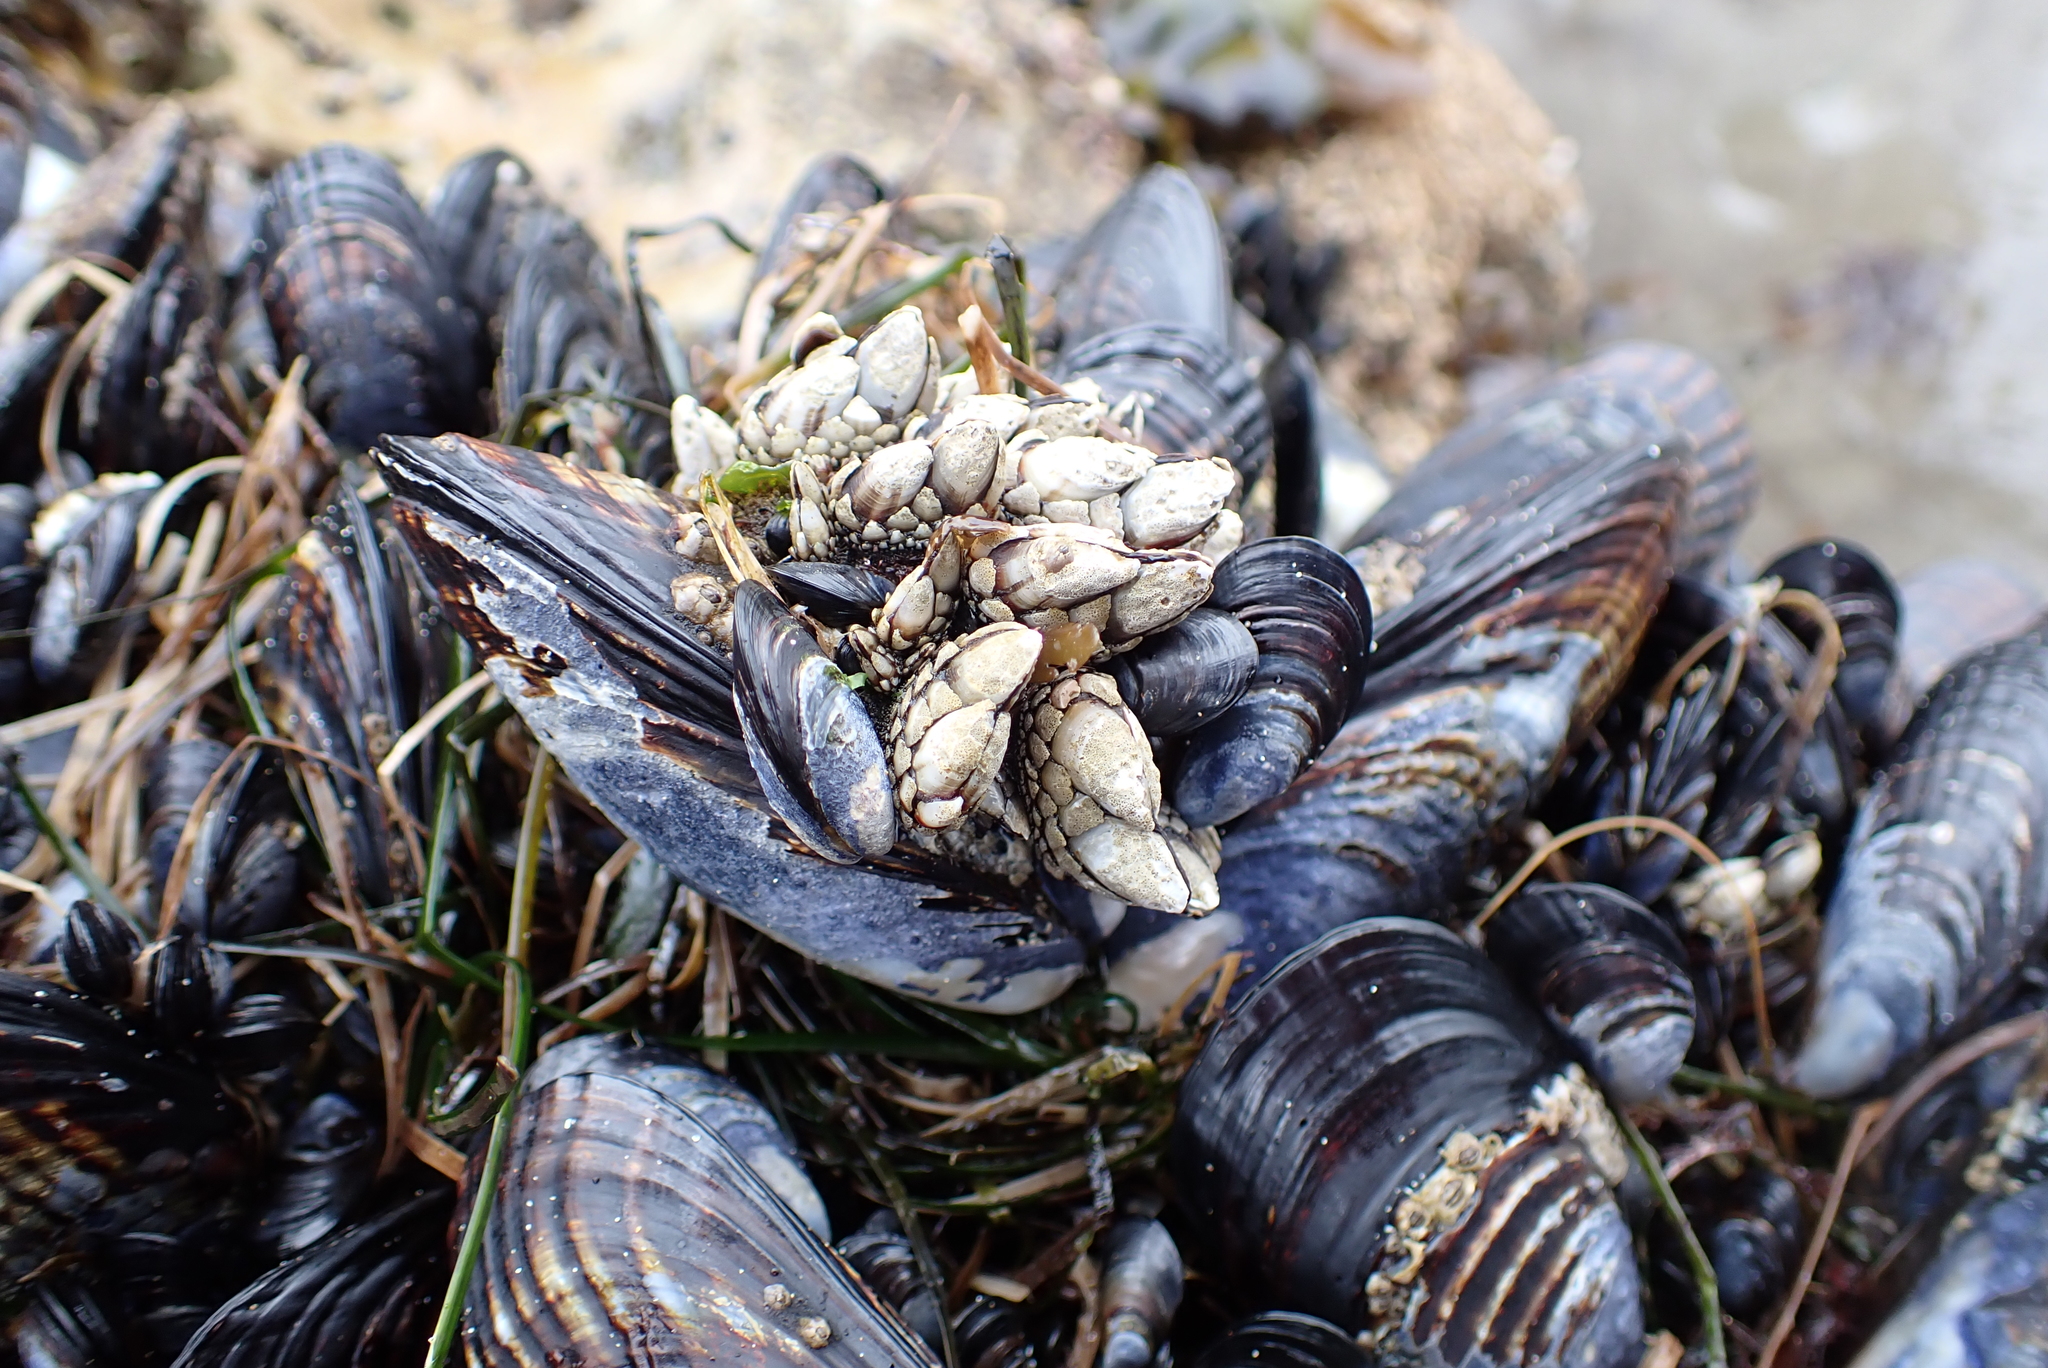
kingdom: Animalia
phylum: Arthropoda
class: Maxillopoda
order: Pedunculata
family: Pollicipedidae
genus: Pollicipes
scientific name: Pollicipes polymerus
